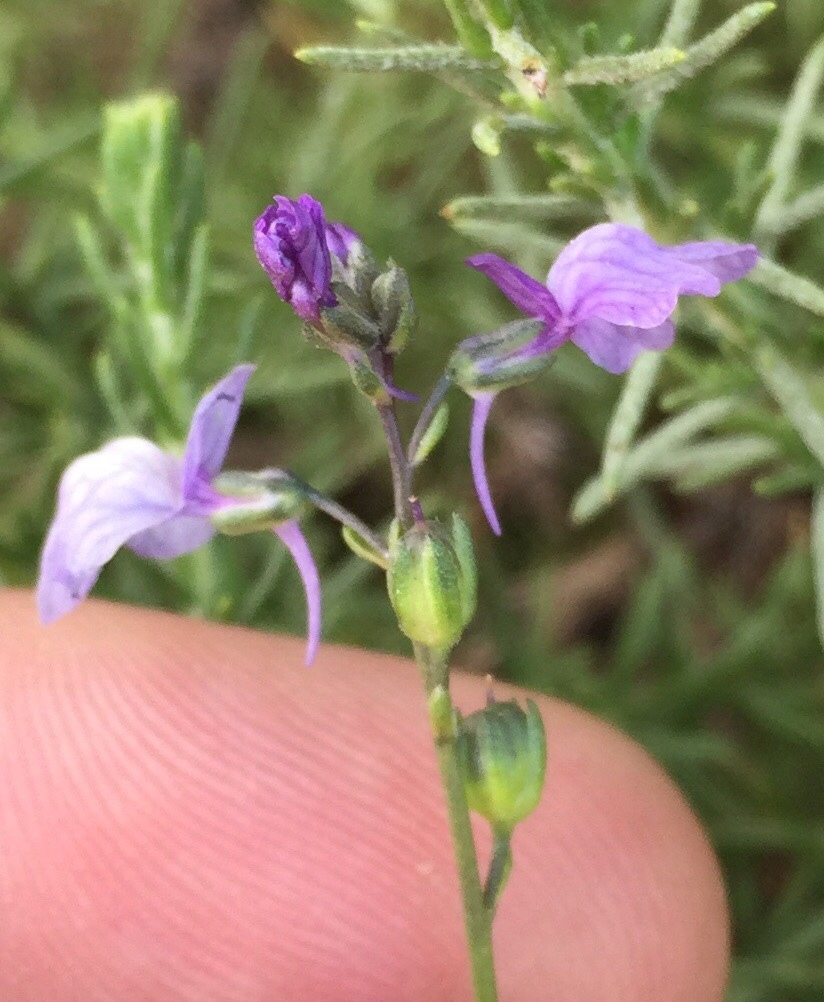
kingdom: Plantae
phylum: Tracheophyta
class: Magnoliopsida
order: Lamiales
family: Plantaginaceae
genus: Nuttallanthus
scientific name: Nuttallanthus texanus
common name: Texas toadflax
